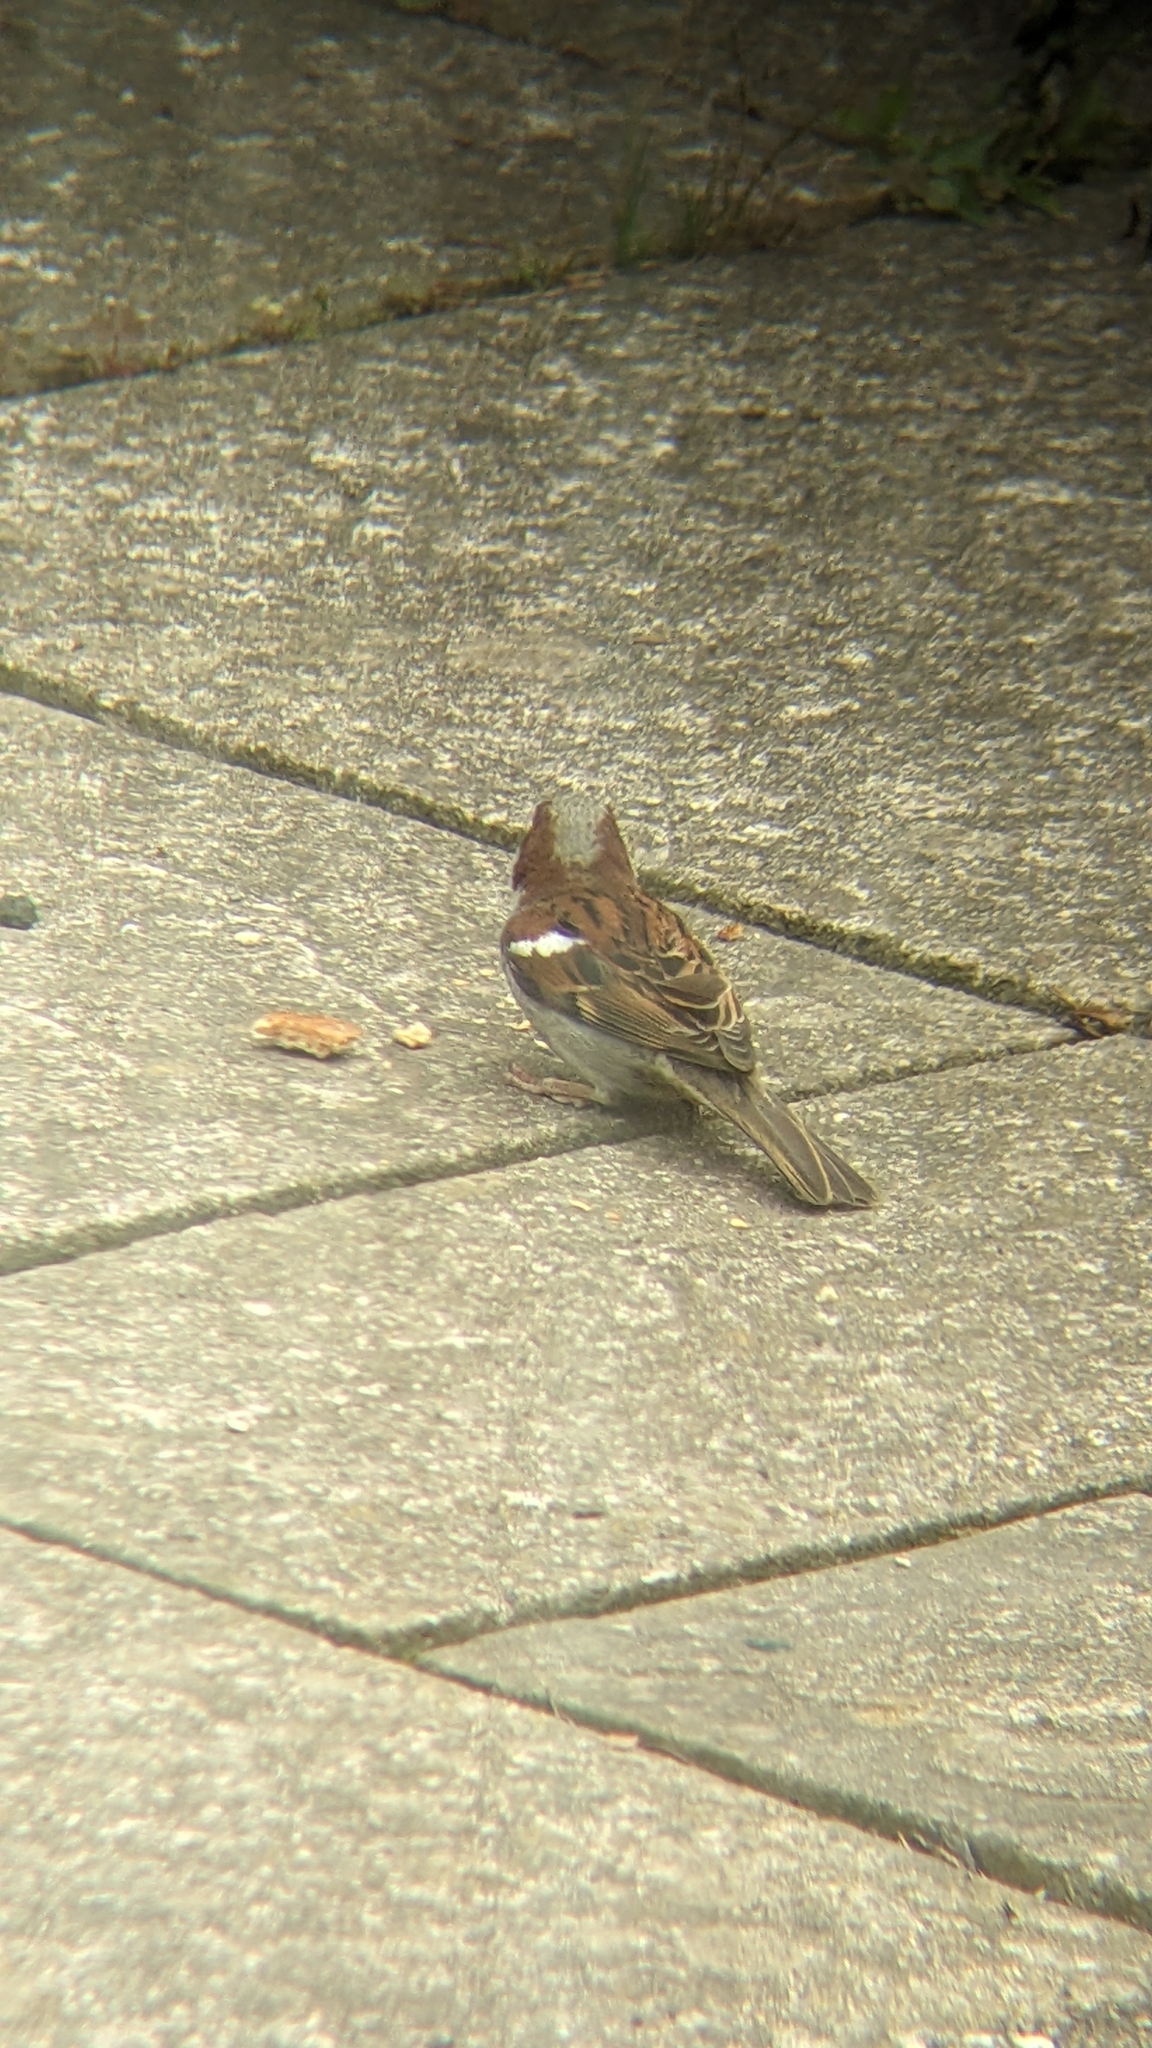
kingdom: Animalia
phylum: Chordata
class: Aves
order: Passeriformes
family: Passeridae
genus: Passer
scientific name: Passer domesticus
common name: House sparrow
